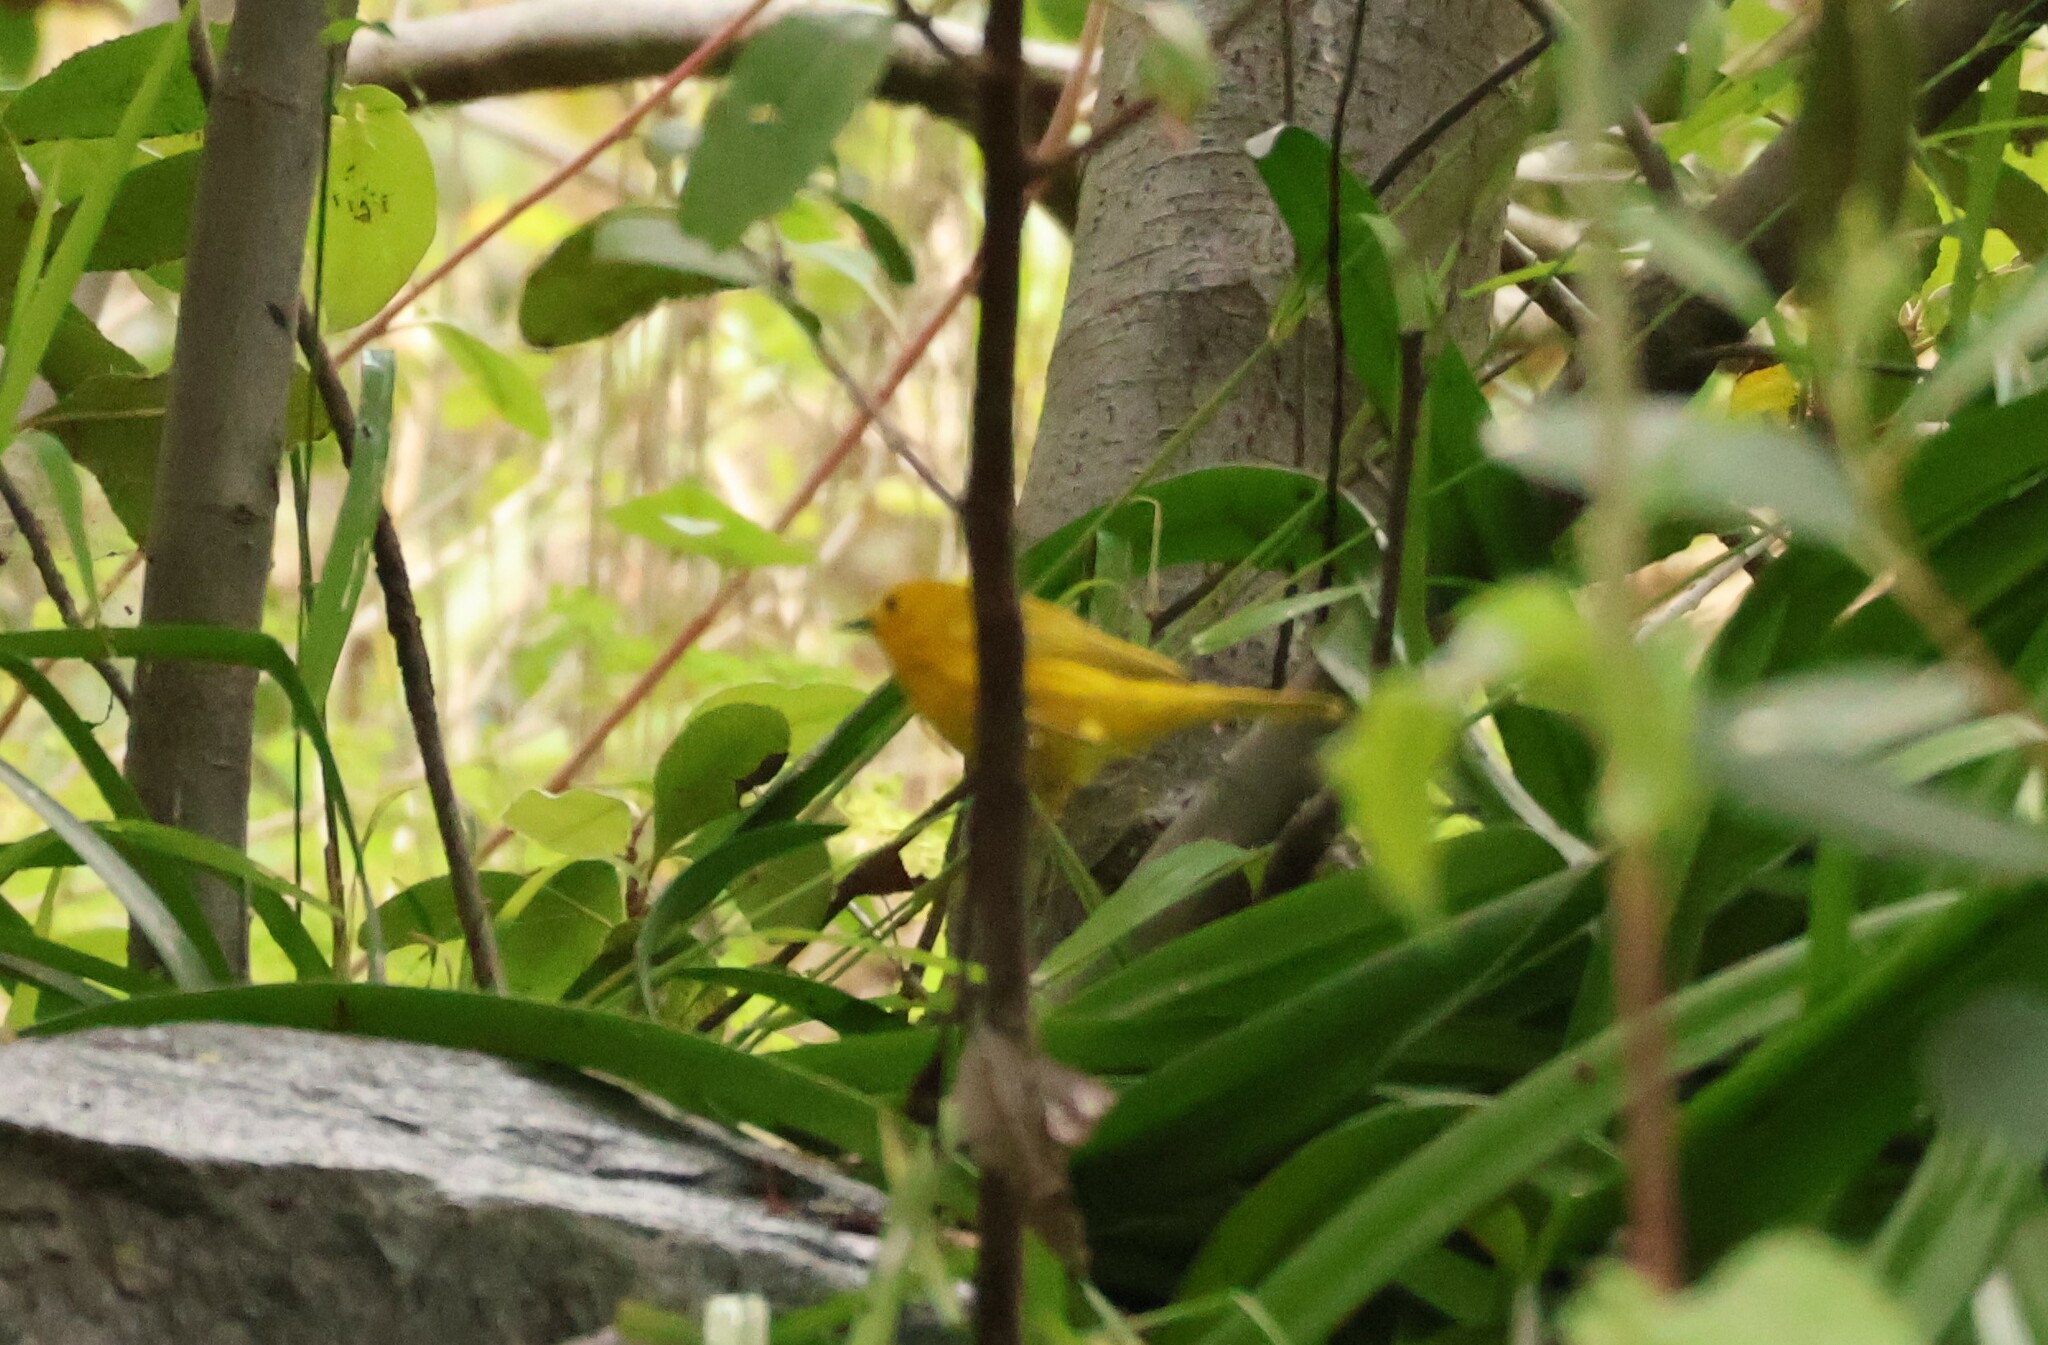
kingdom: Animalia
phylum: Chordata
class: Aves
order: Passeriformes
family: Parulidae
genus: Setophaga
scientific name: Setophaga petechia
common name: Yellow warbler
